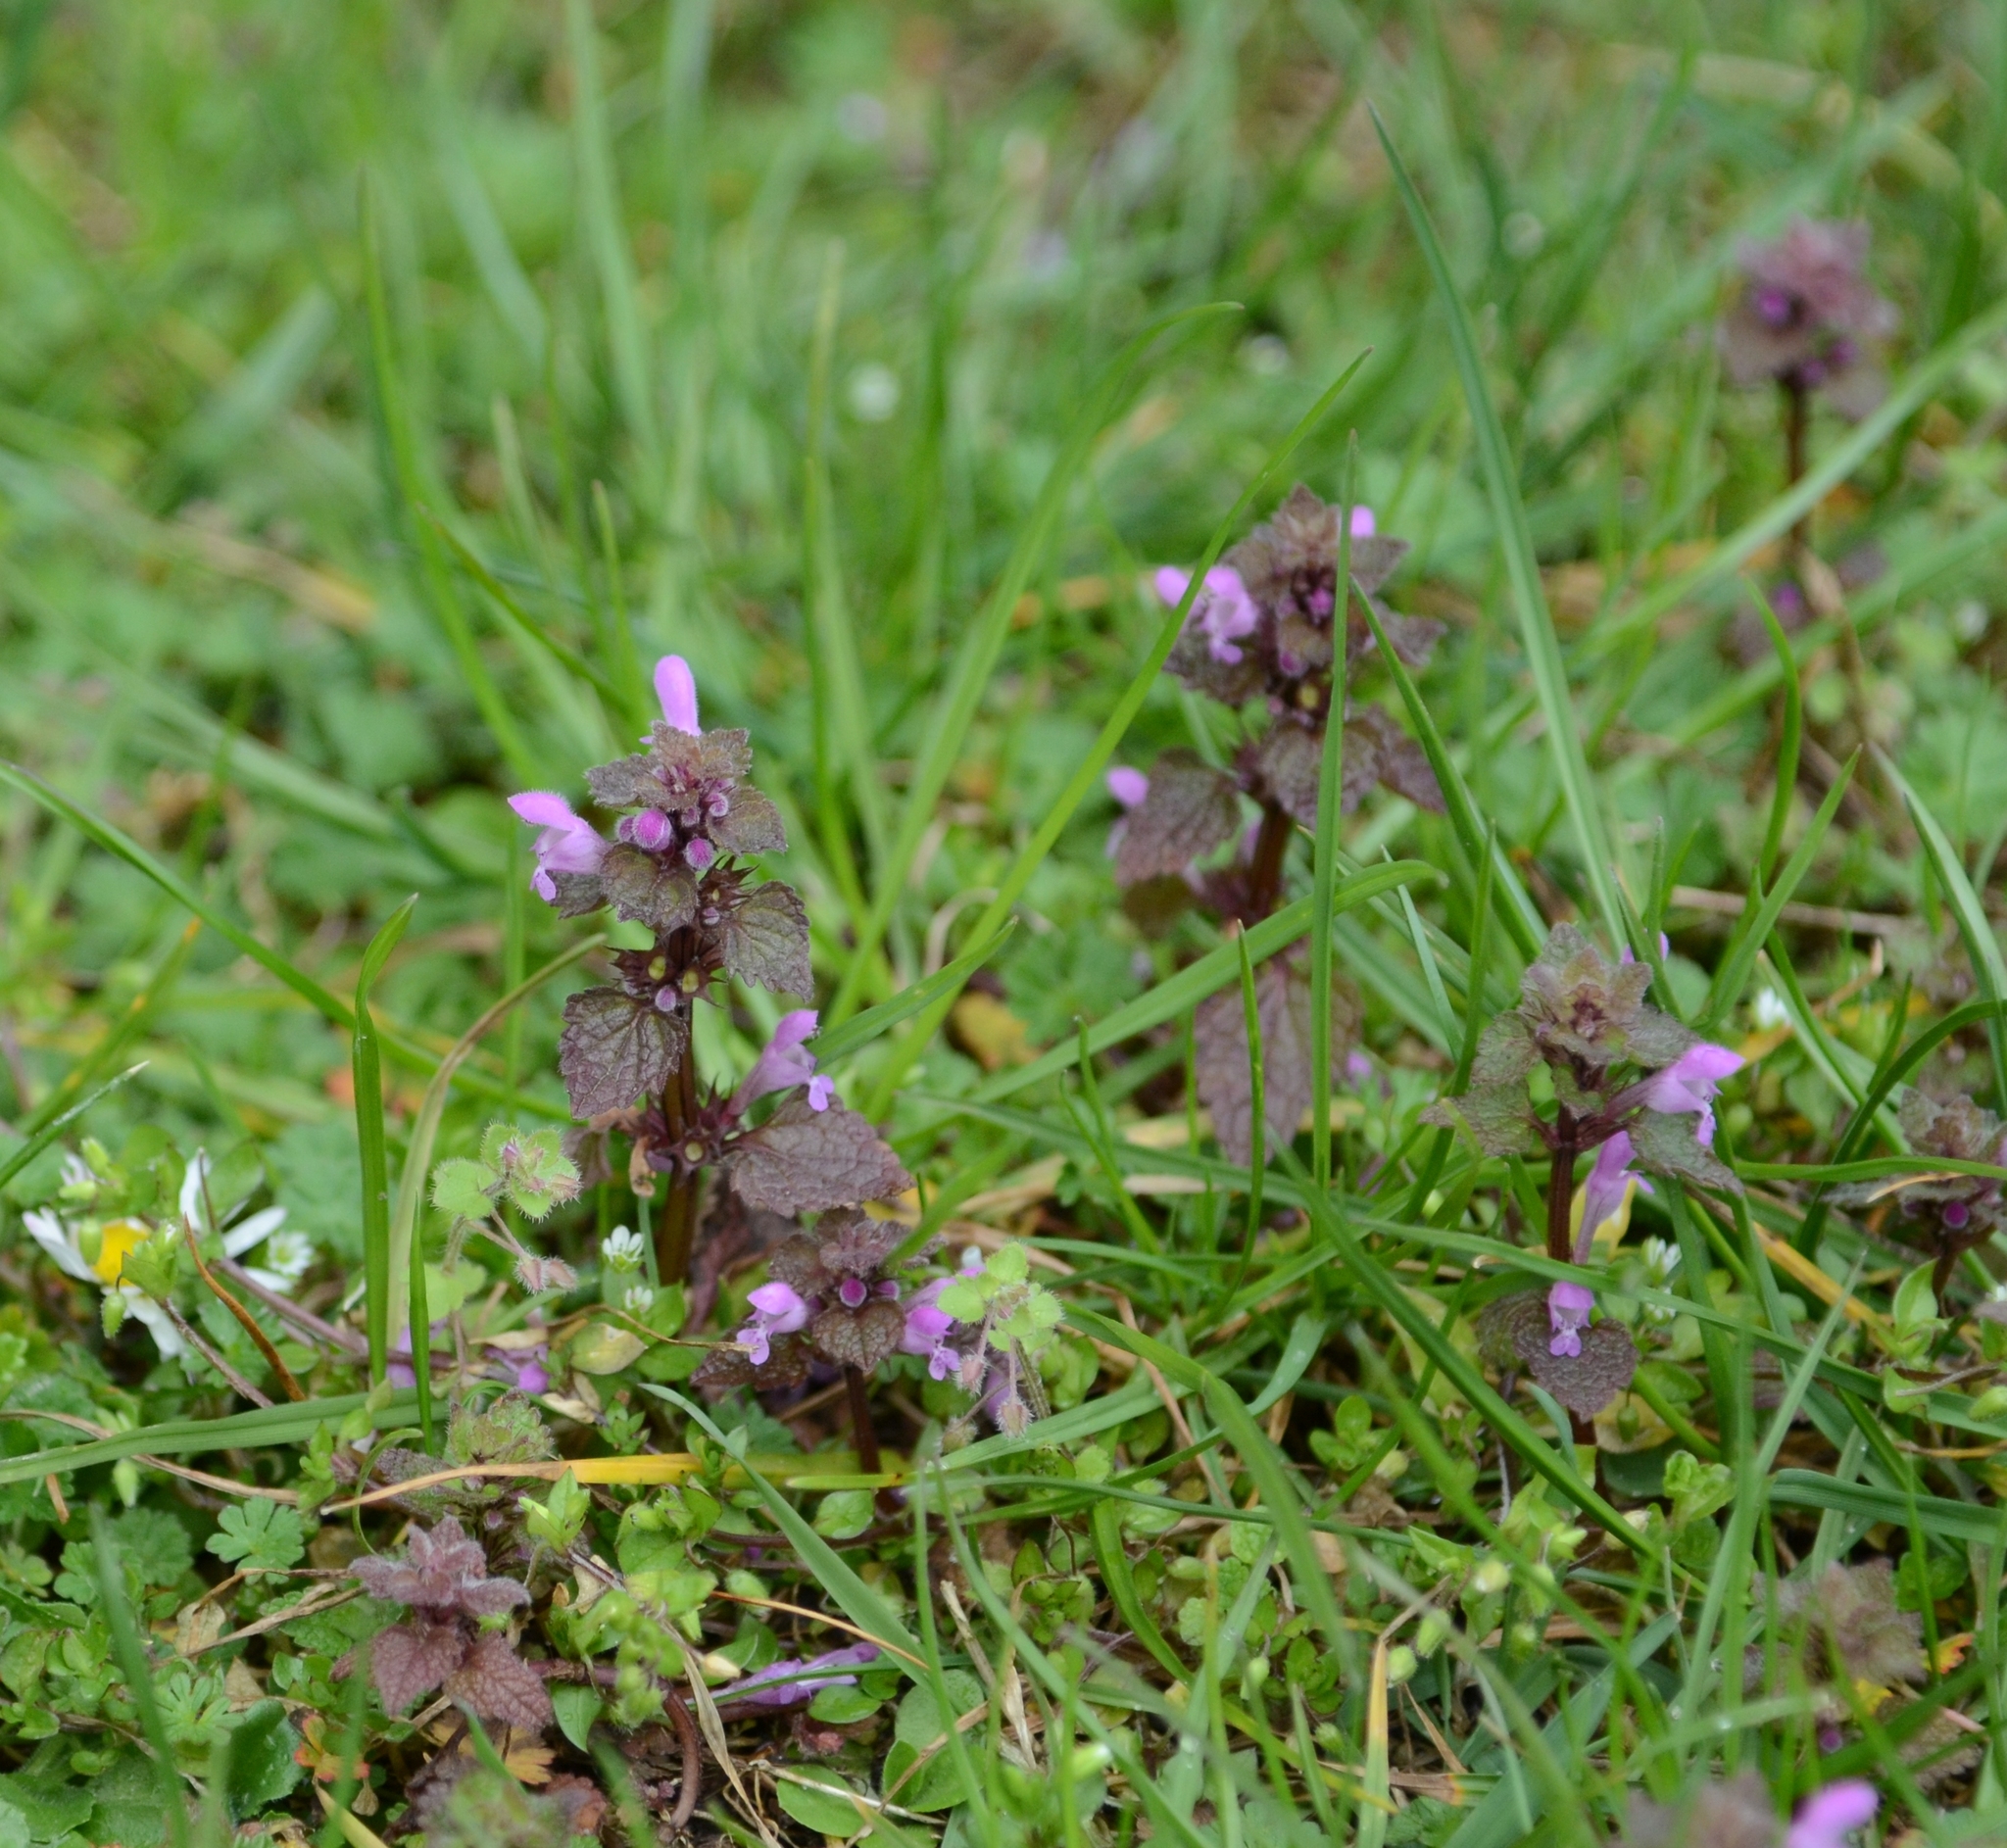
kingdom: Plantae
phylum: Tracheophyta
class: Magnoliopsida
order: Lamiales
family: Lamiaceae
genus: Lamium
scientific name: Lamium purpureum
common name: Red dead-nettle
